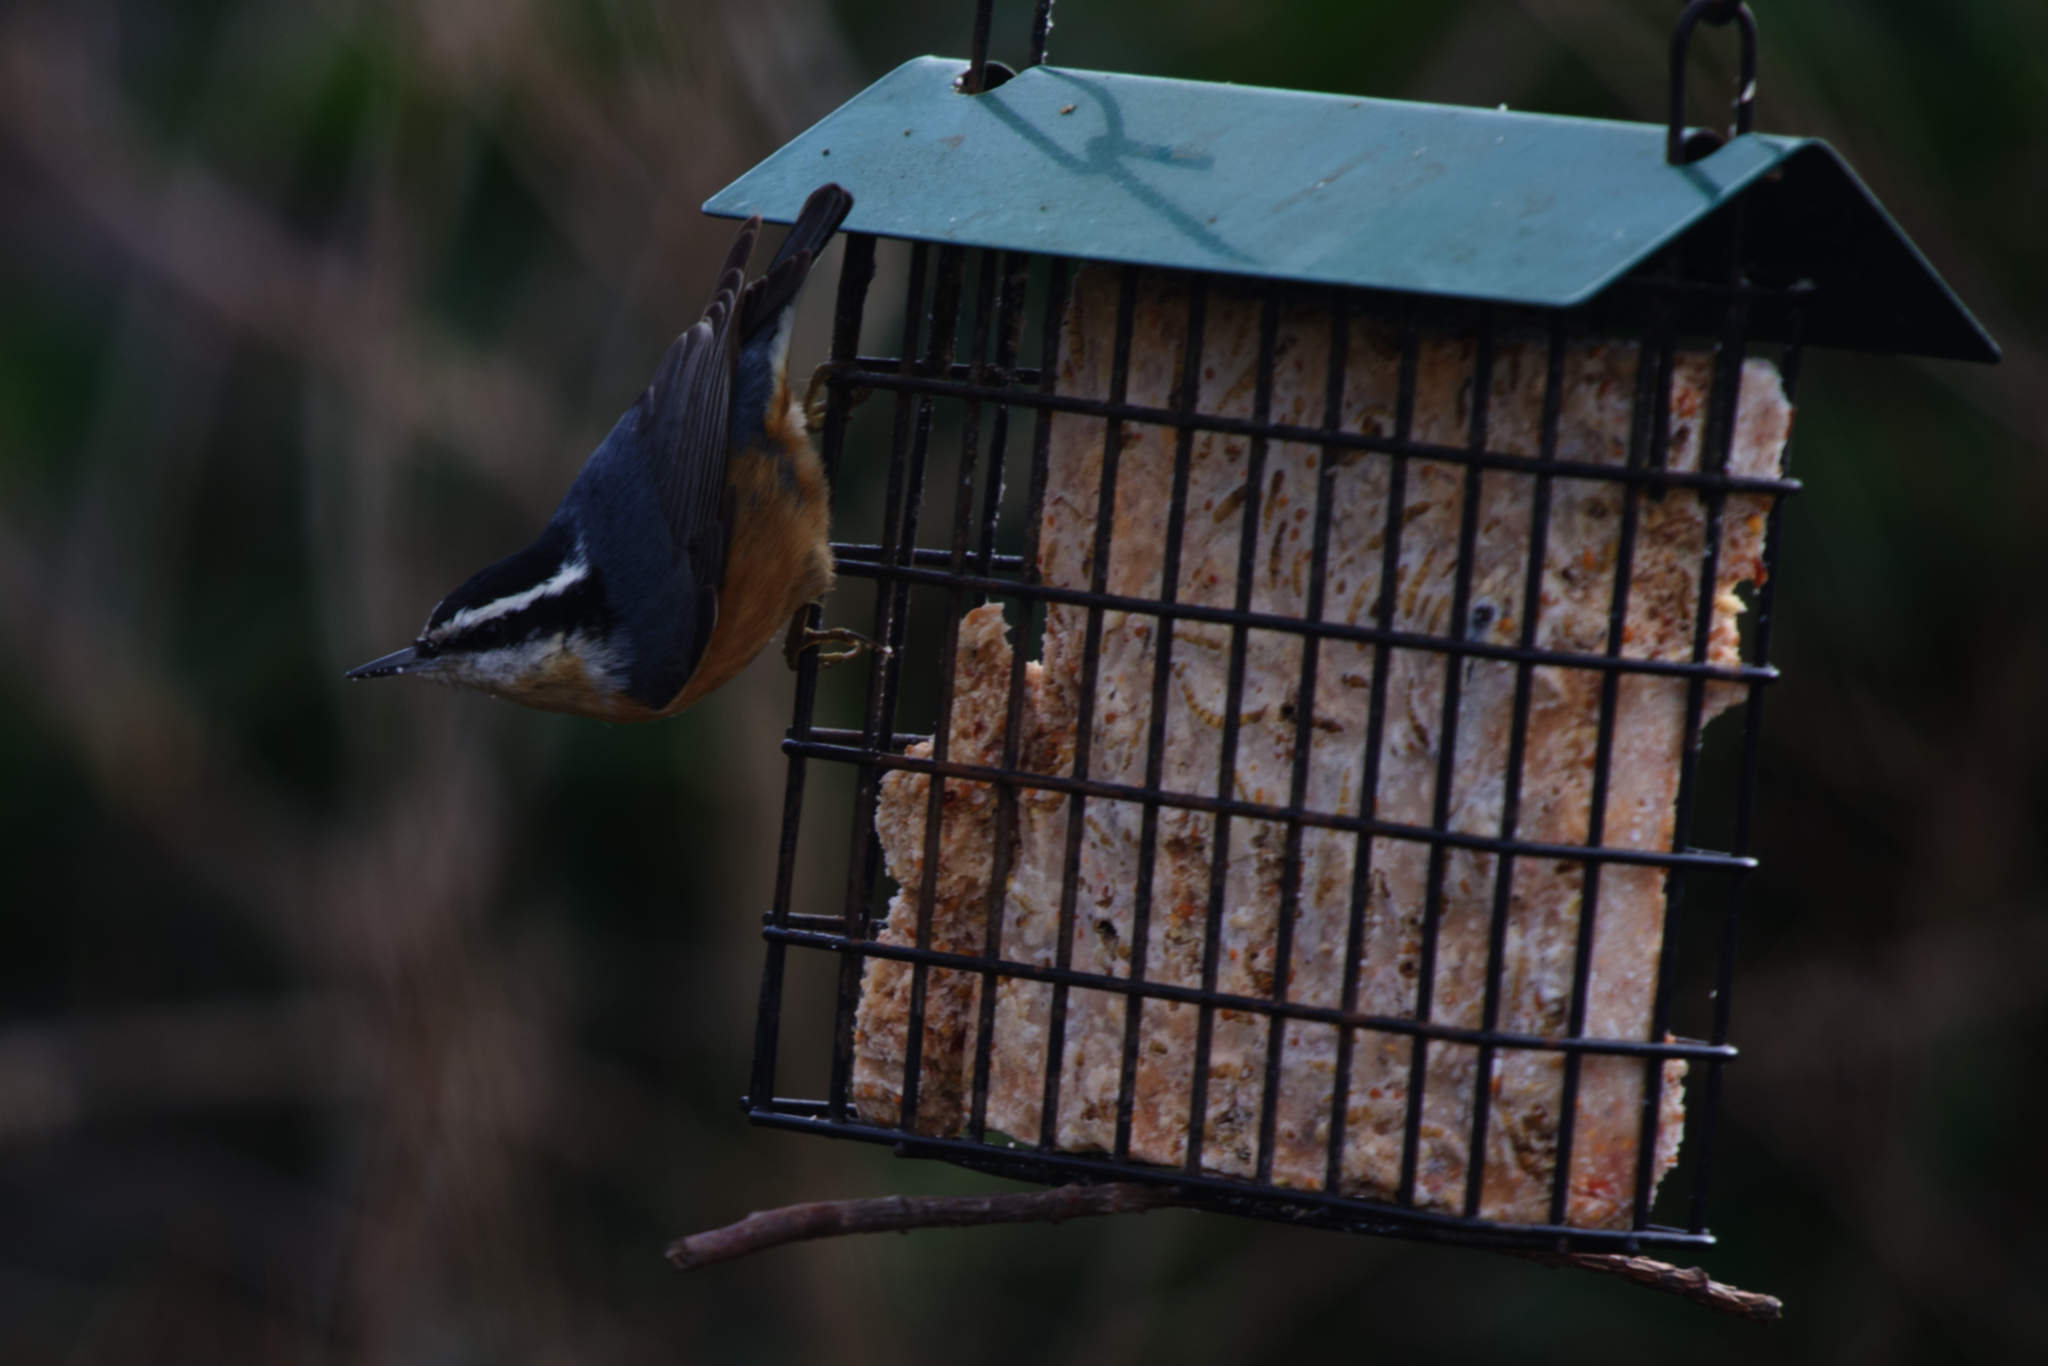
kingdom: Animalia
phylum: Chordata
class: Aves
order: Passeriformes
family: Sittidae
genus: Sitta
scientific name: Sitta canadensis
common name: Red-breasted nuthatch
